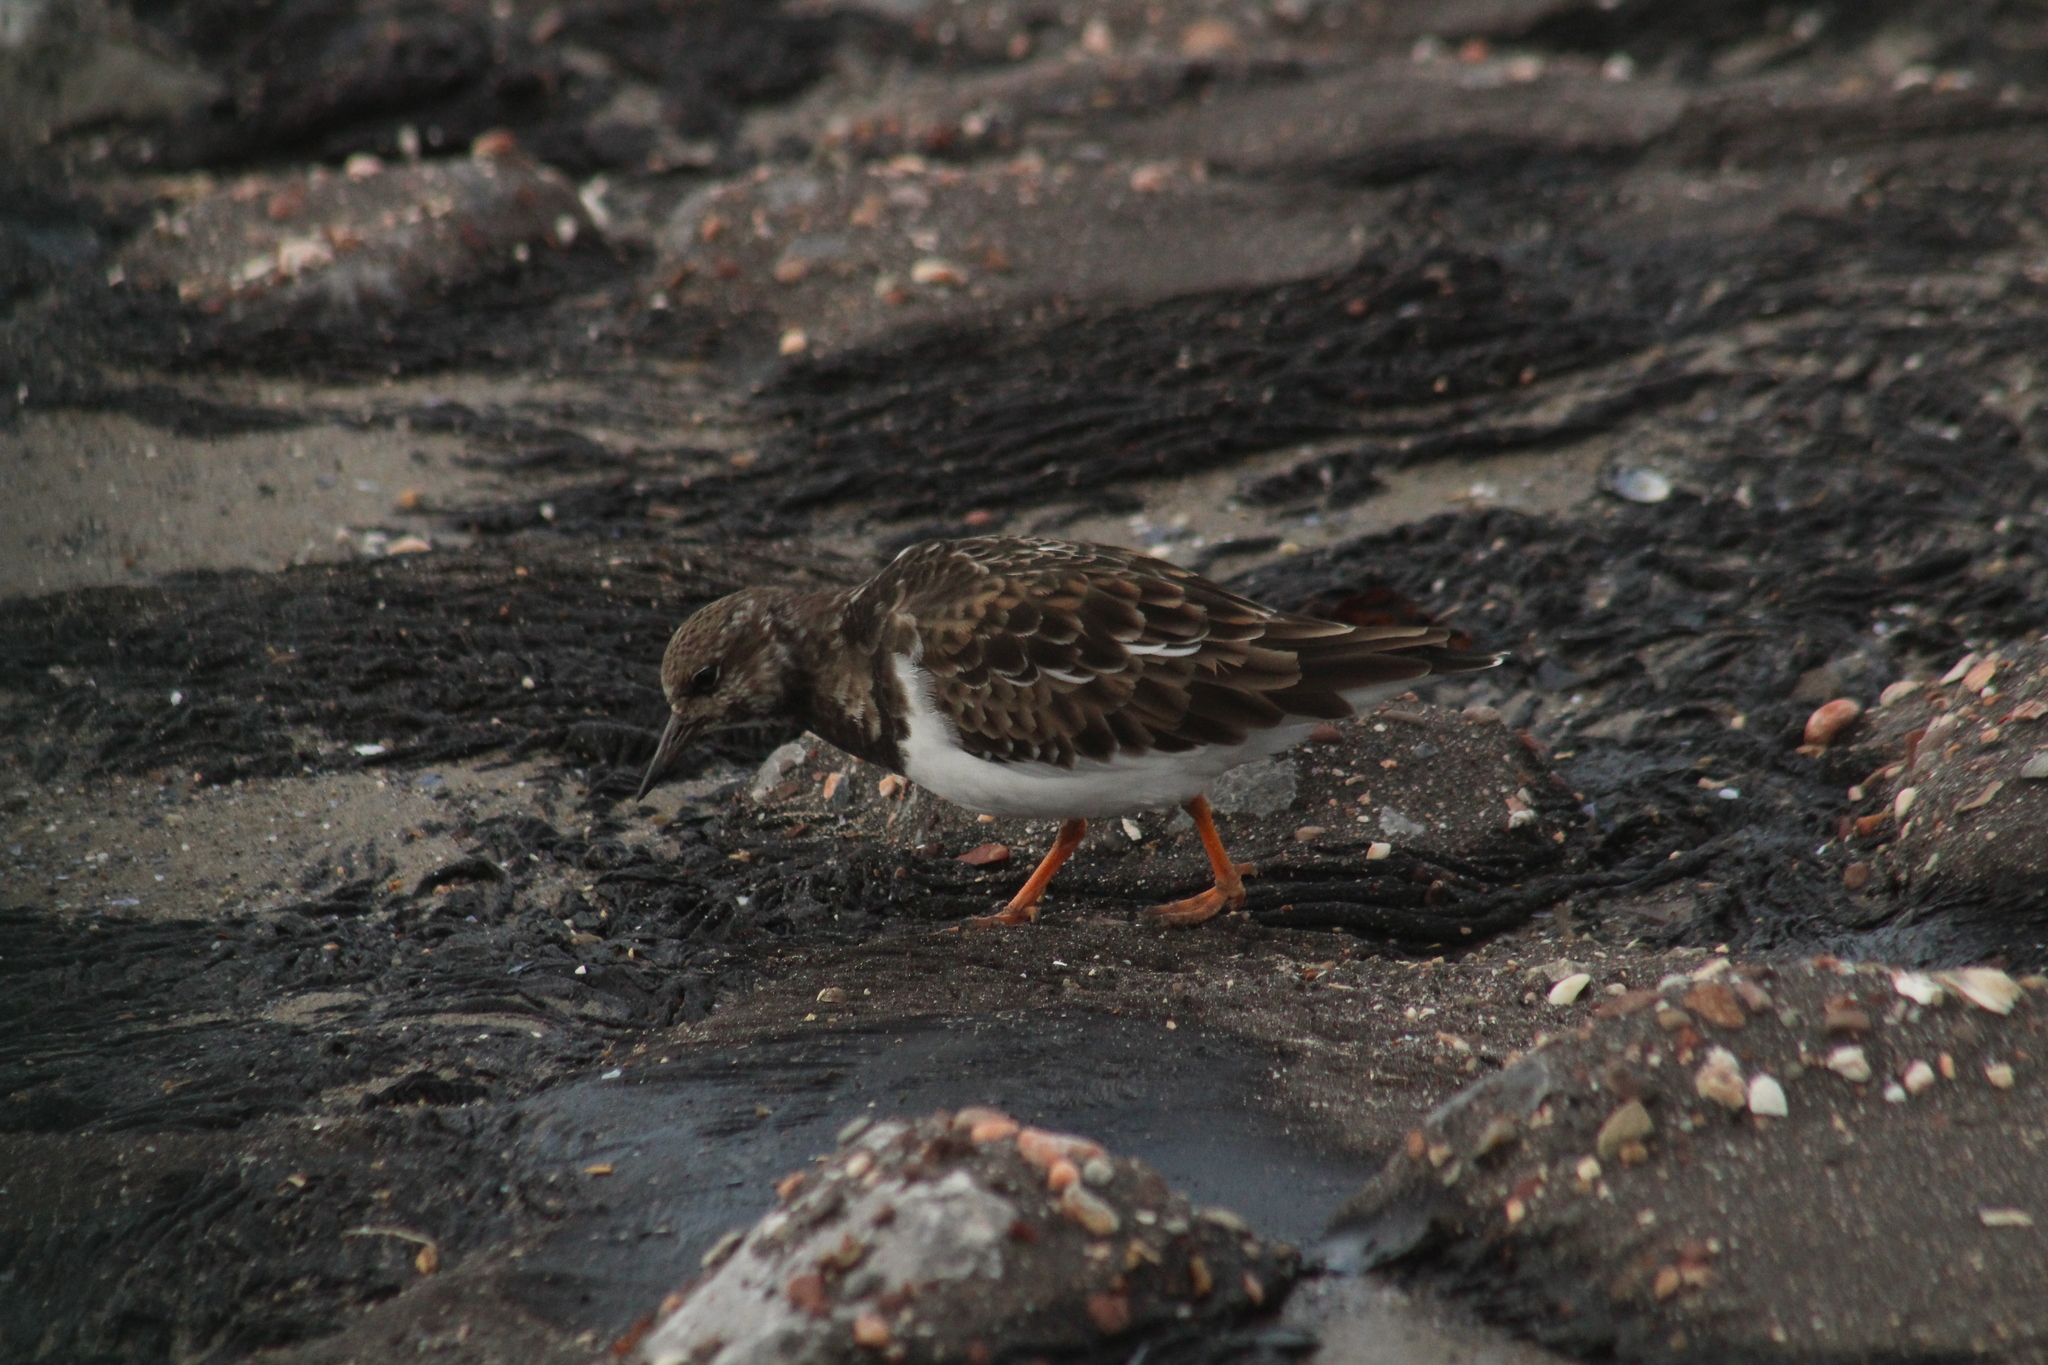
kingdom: Animalia
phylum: Chordata
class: Aves
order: Charadriiformes
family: Scolopacidae
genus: Arenaria
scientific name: Arenaria interpres
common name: Ruddy turnstone
